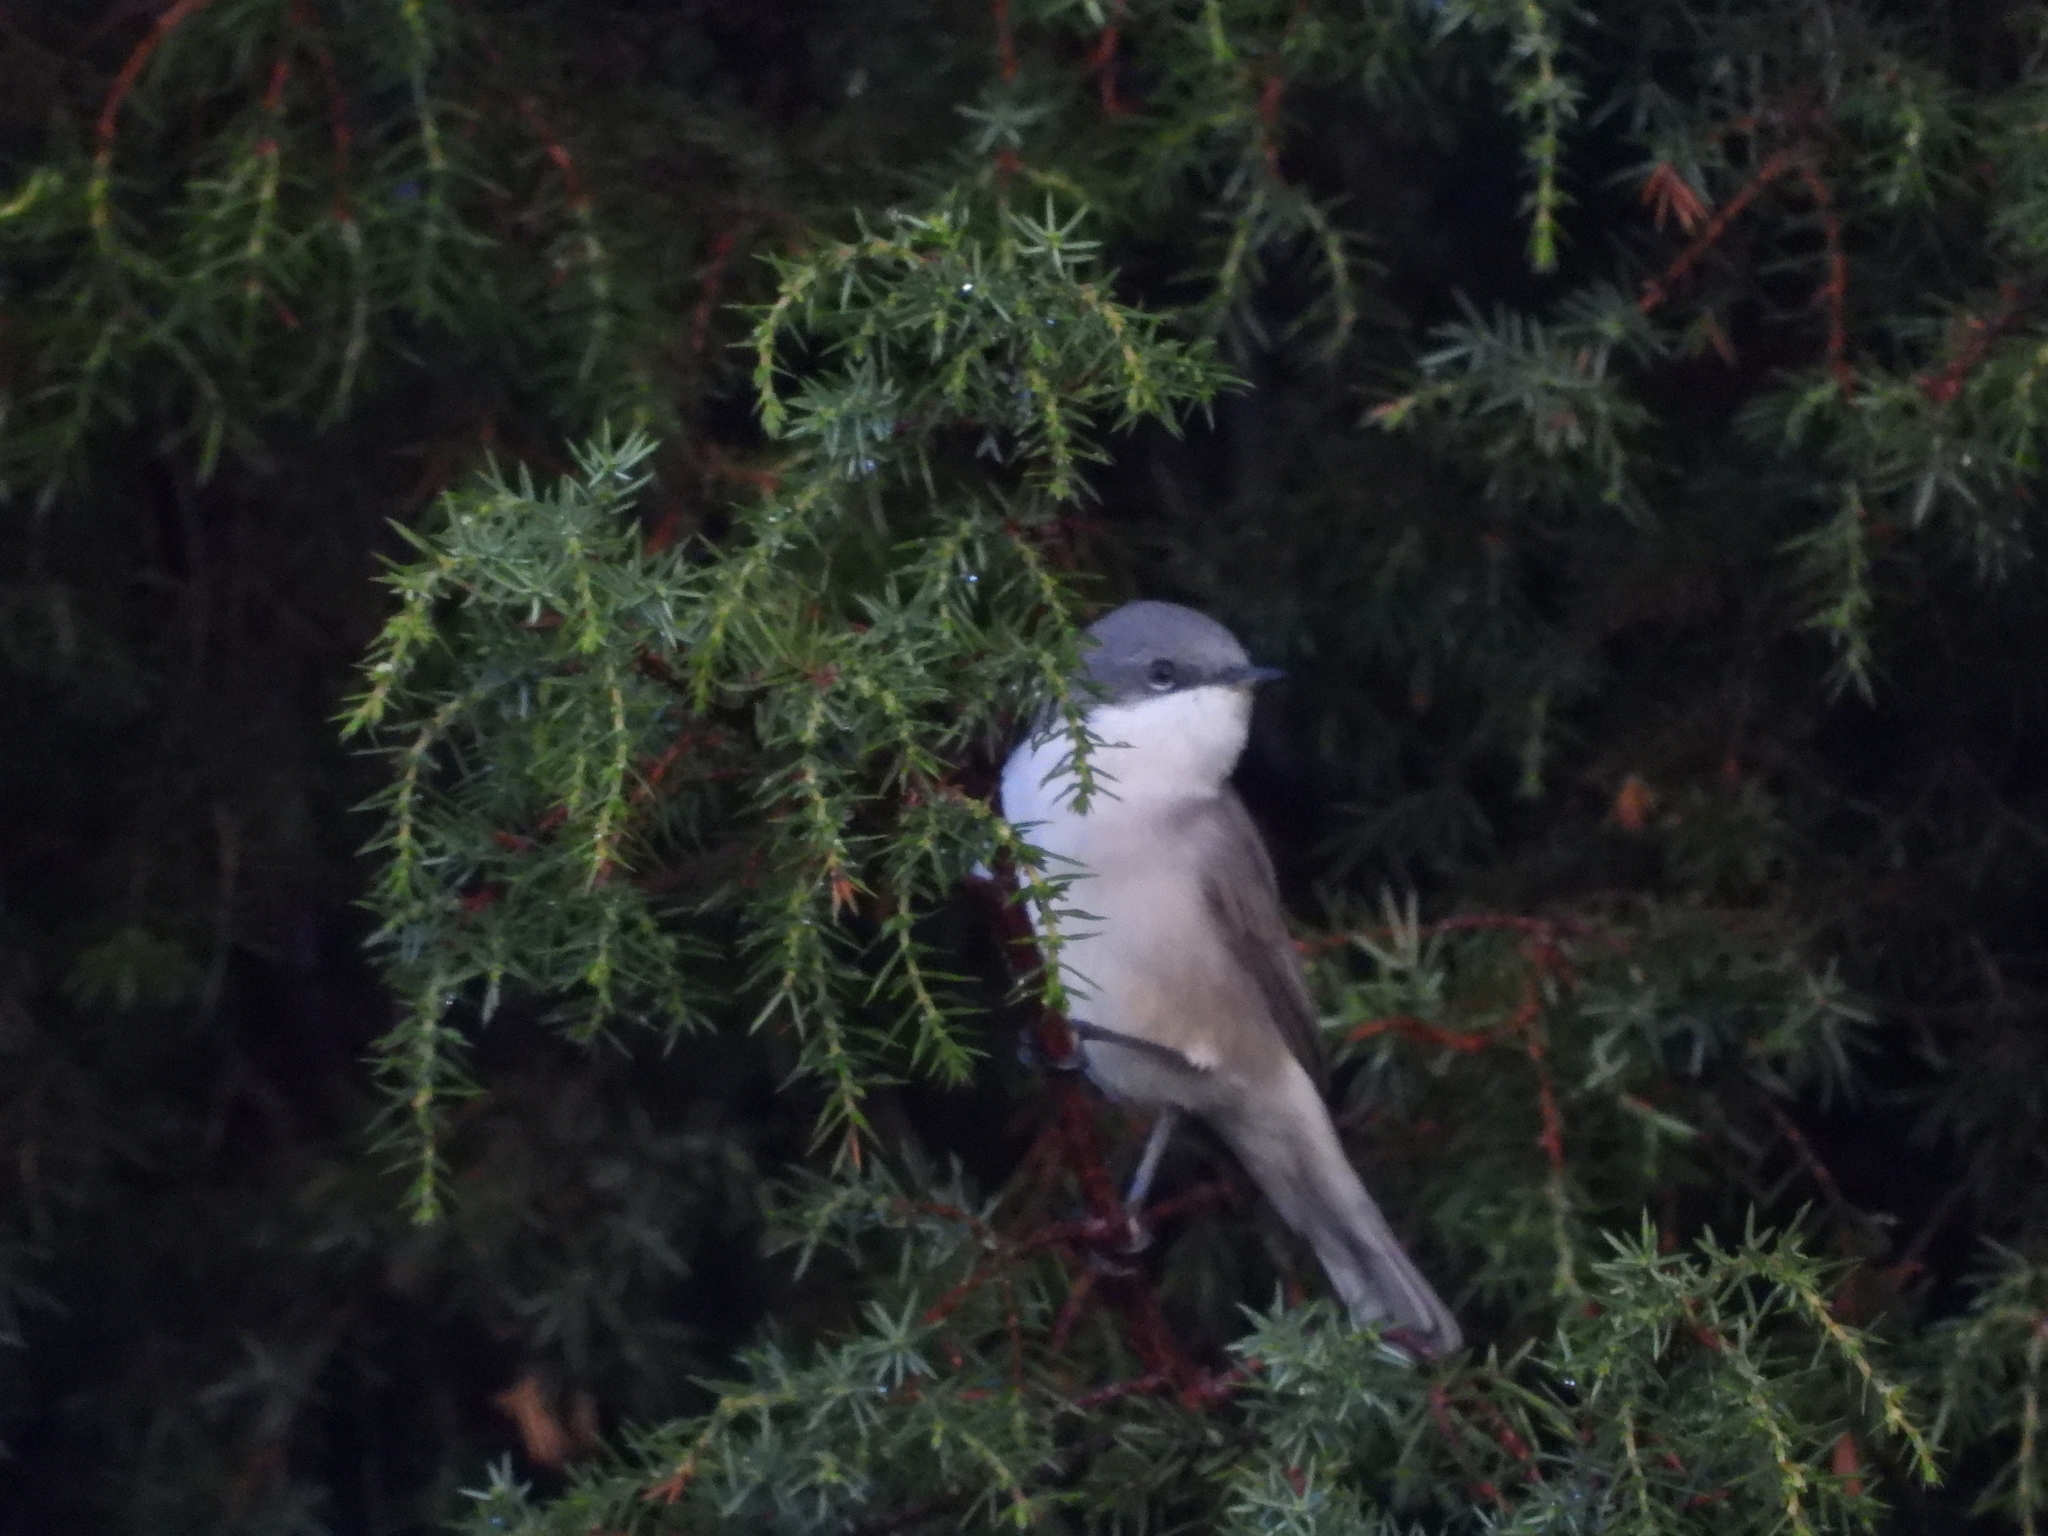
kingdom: Animalia
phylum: Chordata
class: Aves
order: Passeriformes
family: Sylviidae
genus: Sylvia
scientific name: Sylvia curruca
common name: Lesser whitethroat
